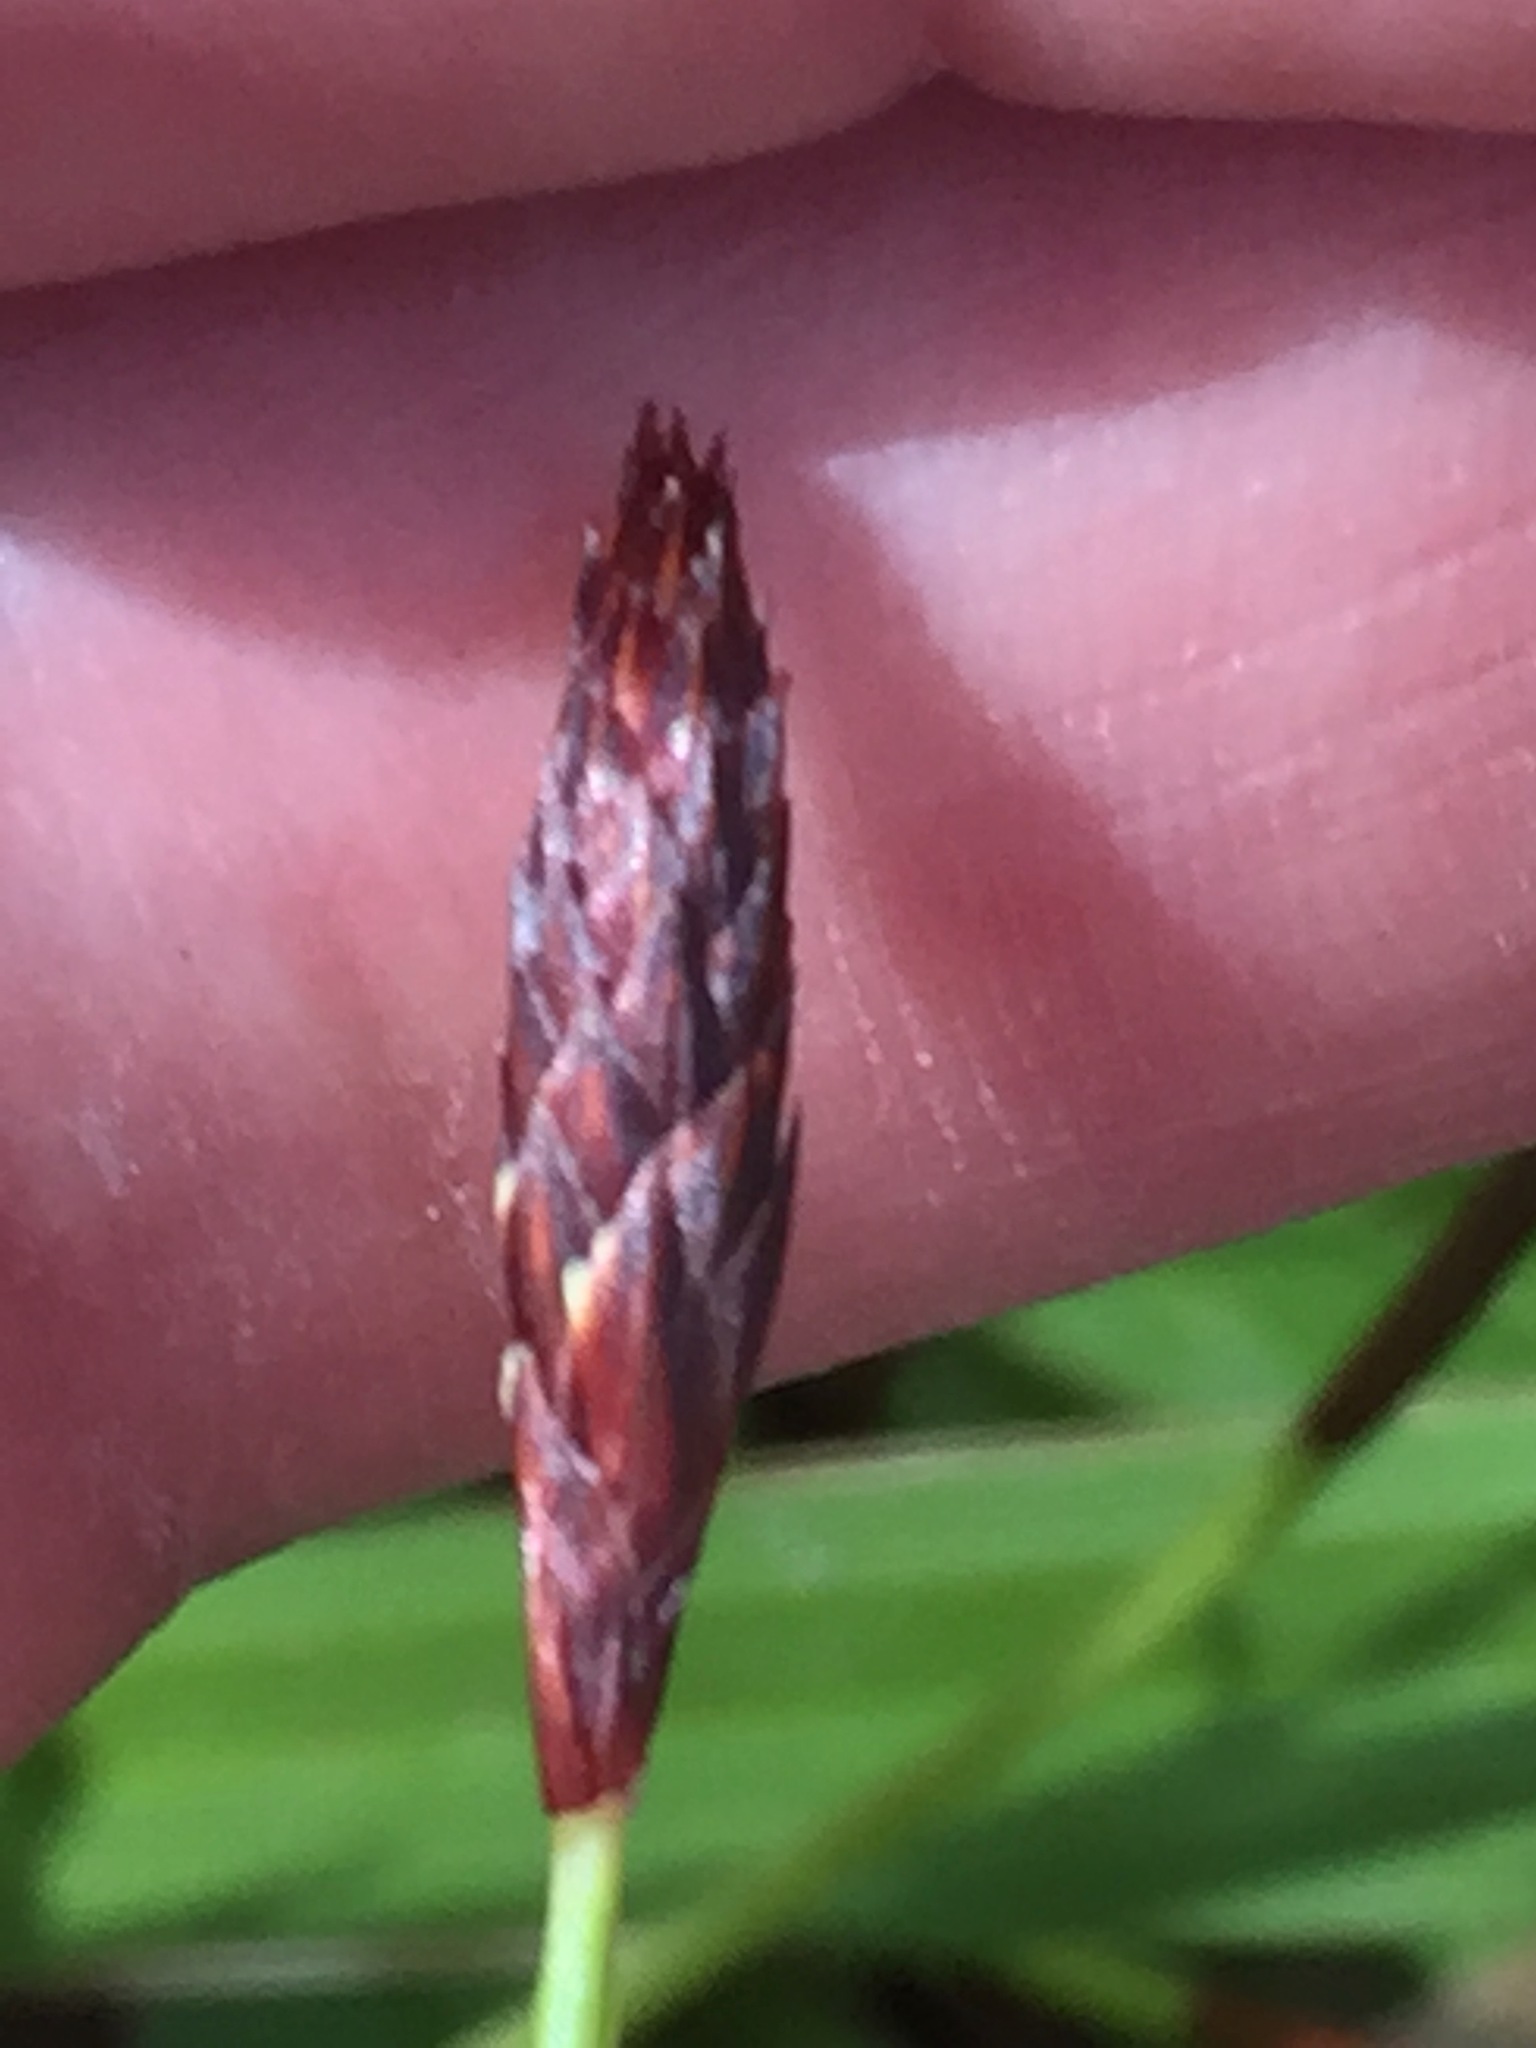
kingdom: Plantae
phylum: Tracheophyta
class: Liliopsida
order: Poales
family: Cyperaceae
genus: Carex
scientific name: Carex plantaginea
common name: Plantain-leaved sedge
